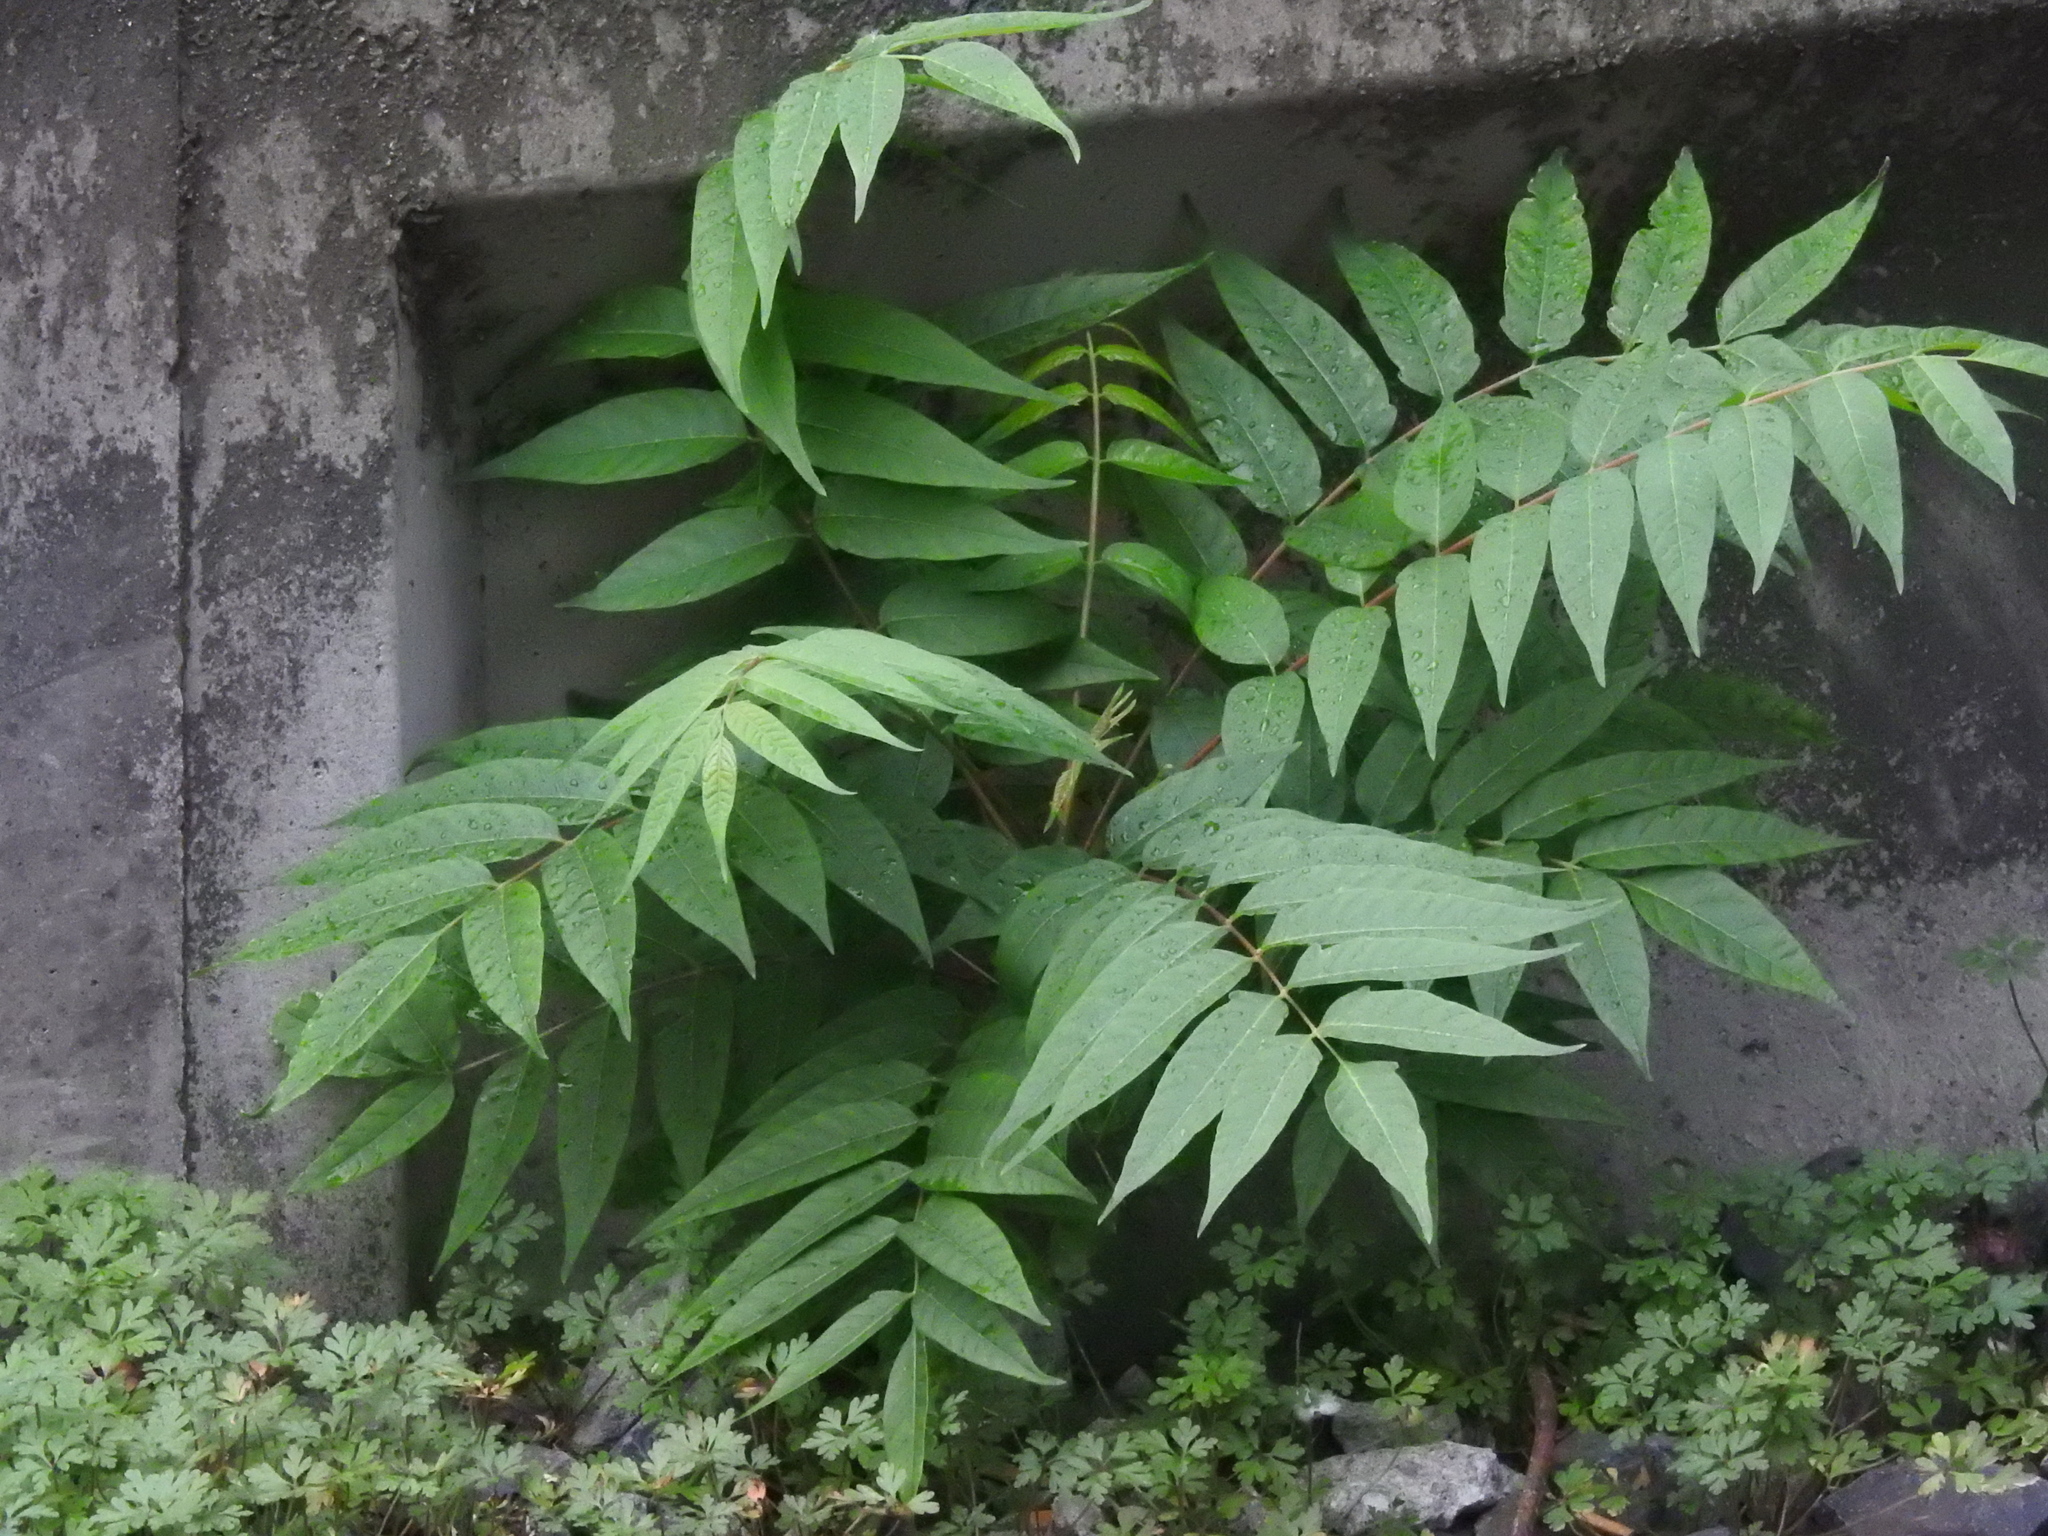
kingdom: Plantae
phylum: Tracheophyta
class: Magnoliopsida
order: Sapindales
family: Simaroubaceae
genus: Ailanthus
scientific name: Ailanthus altissima
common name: Tree-of-heaven
